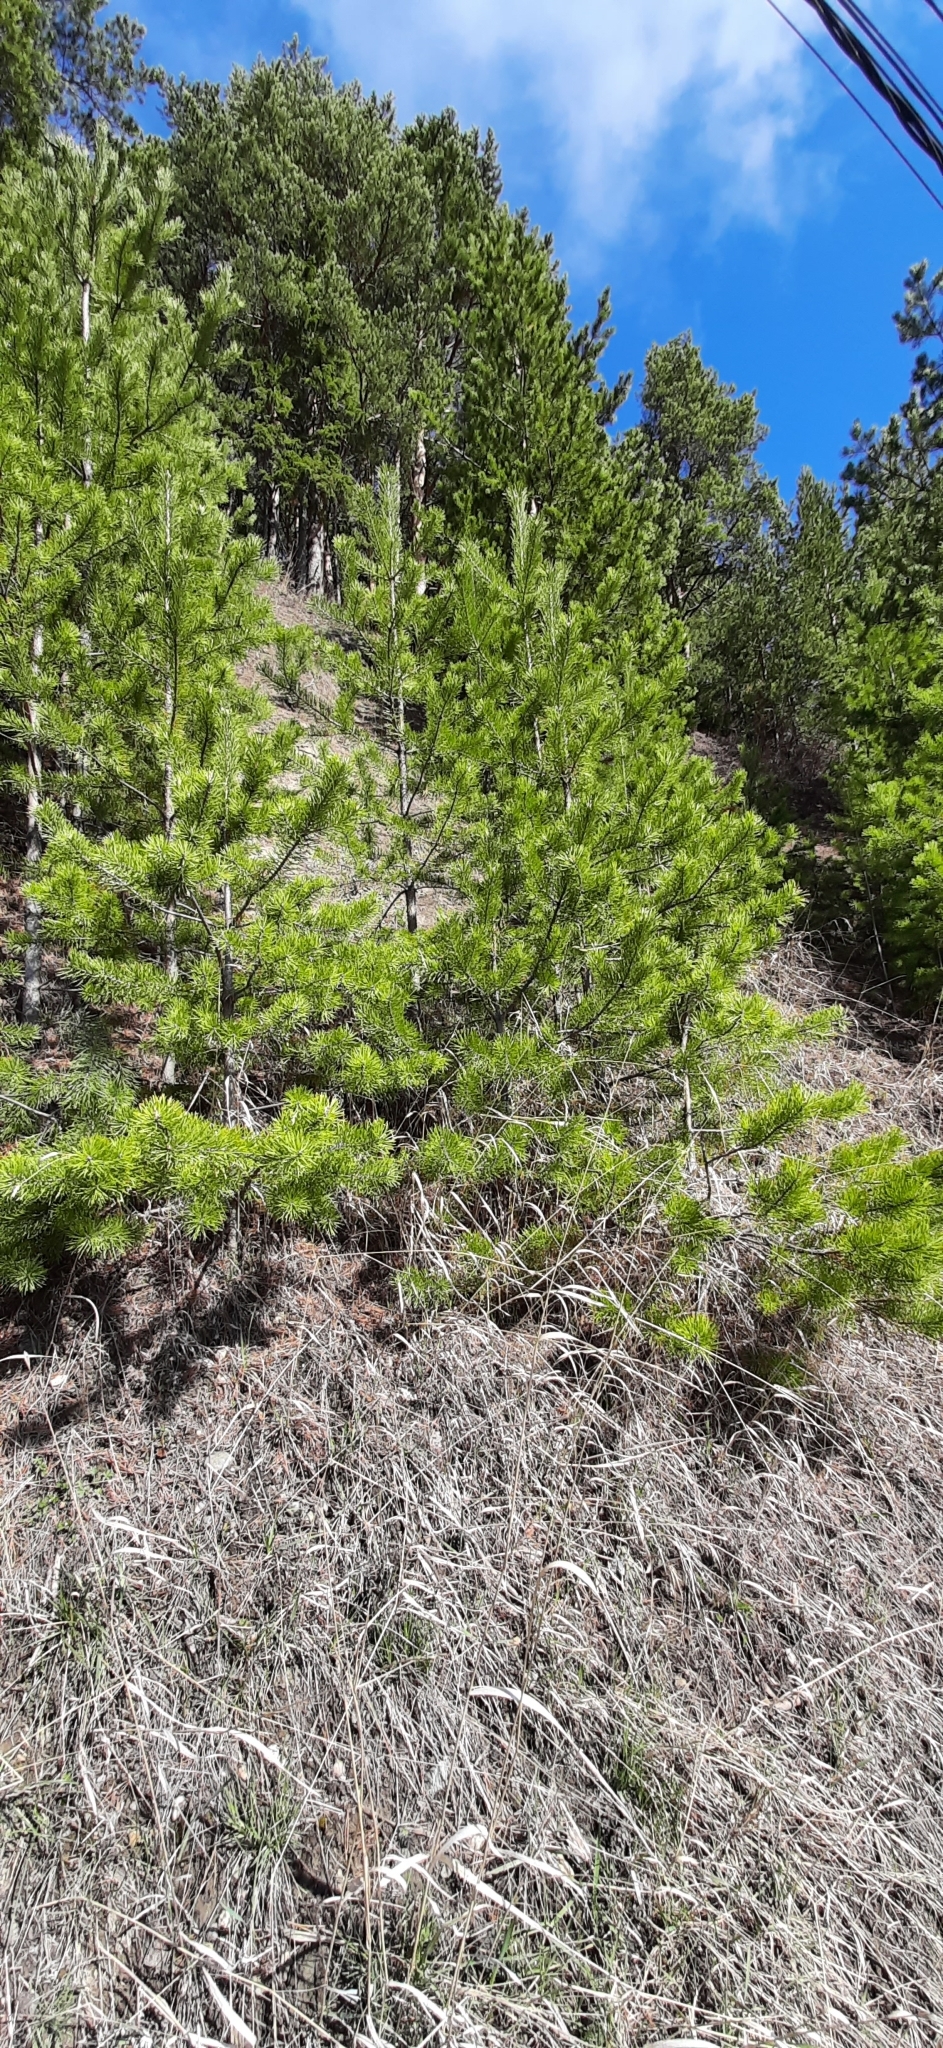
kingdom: Plantae
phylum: Tracheophyta
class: Pinopsida
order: Pinales
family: Pinaceae
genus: Pinus
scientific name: Pinus sylvestris
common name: Scots pine
